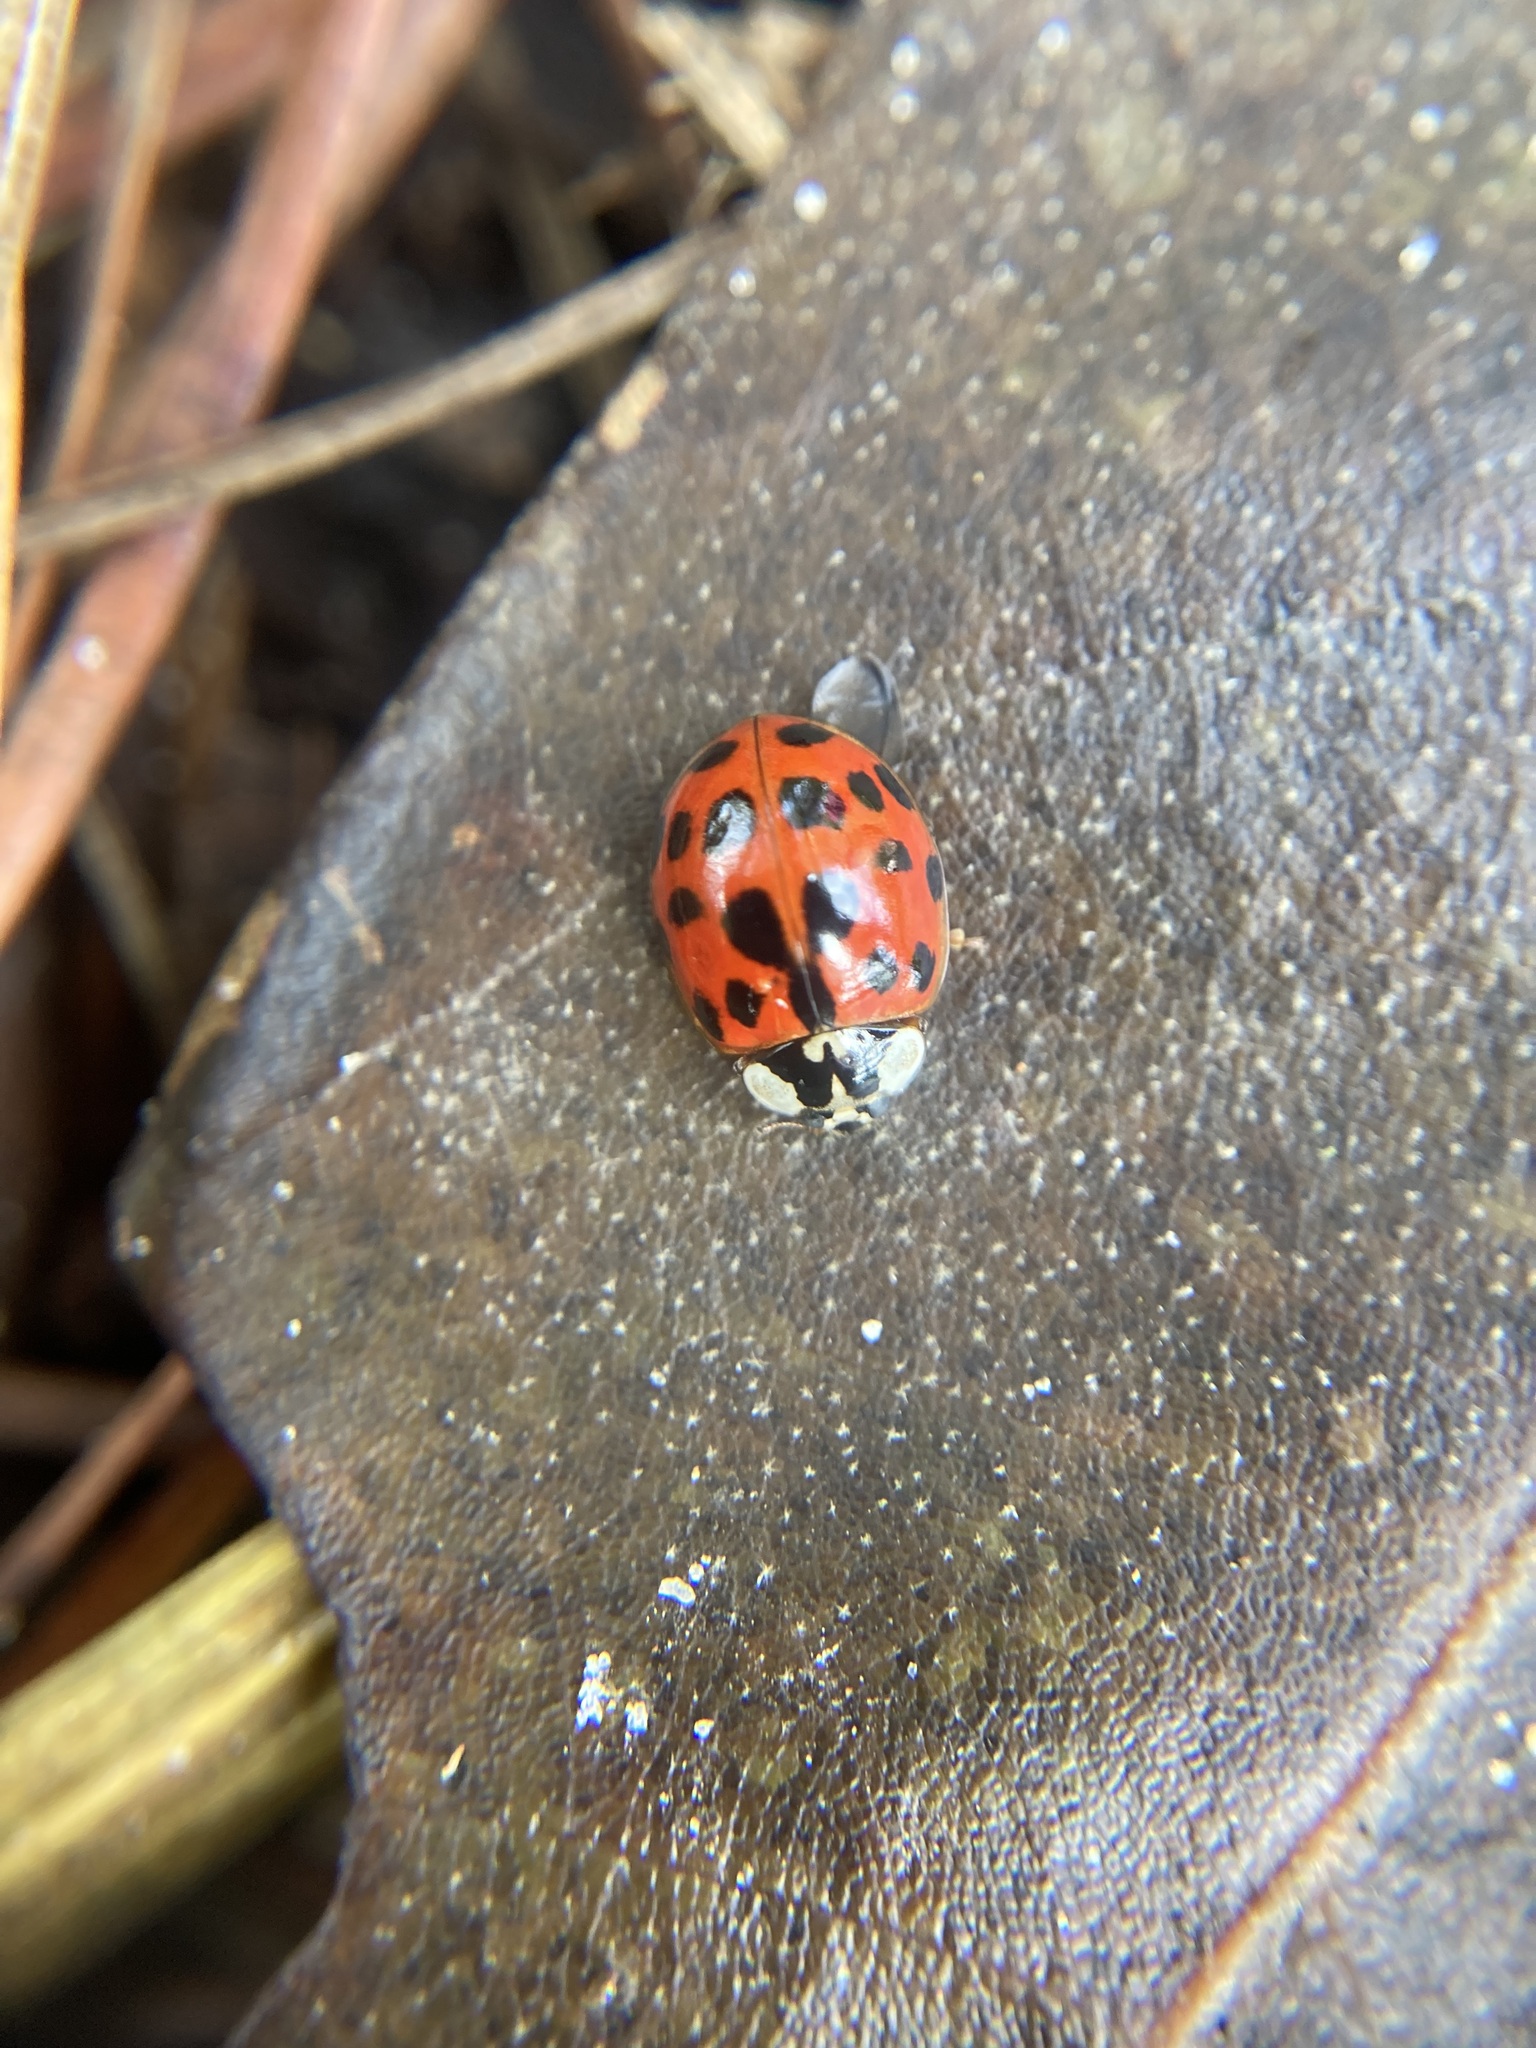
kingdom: Animalia
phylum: Arthropoda
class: Insecta
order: Coleoptera
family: Coccinellidae
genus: Harmonia
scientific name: Harmonia axyridis
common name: Harlequin ladybird
